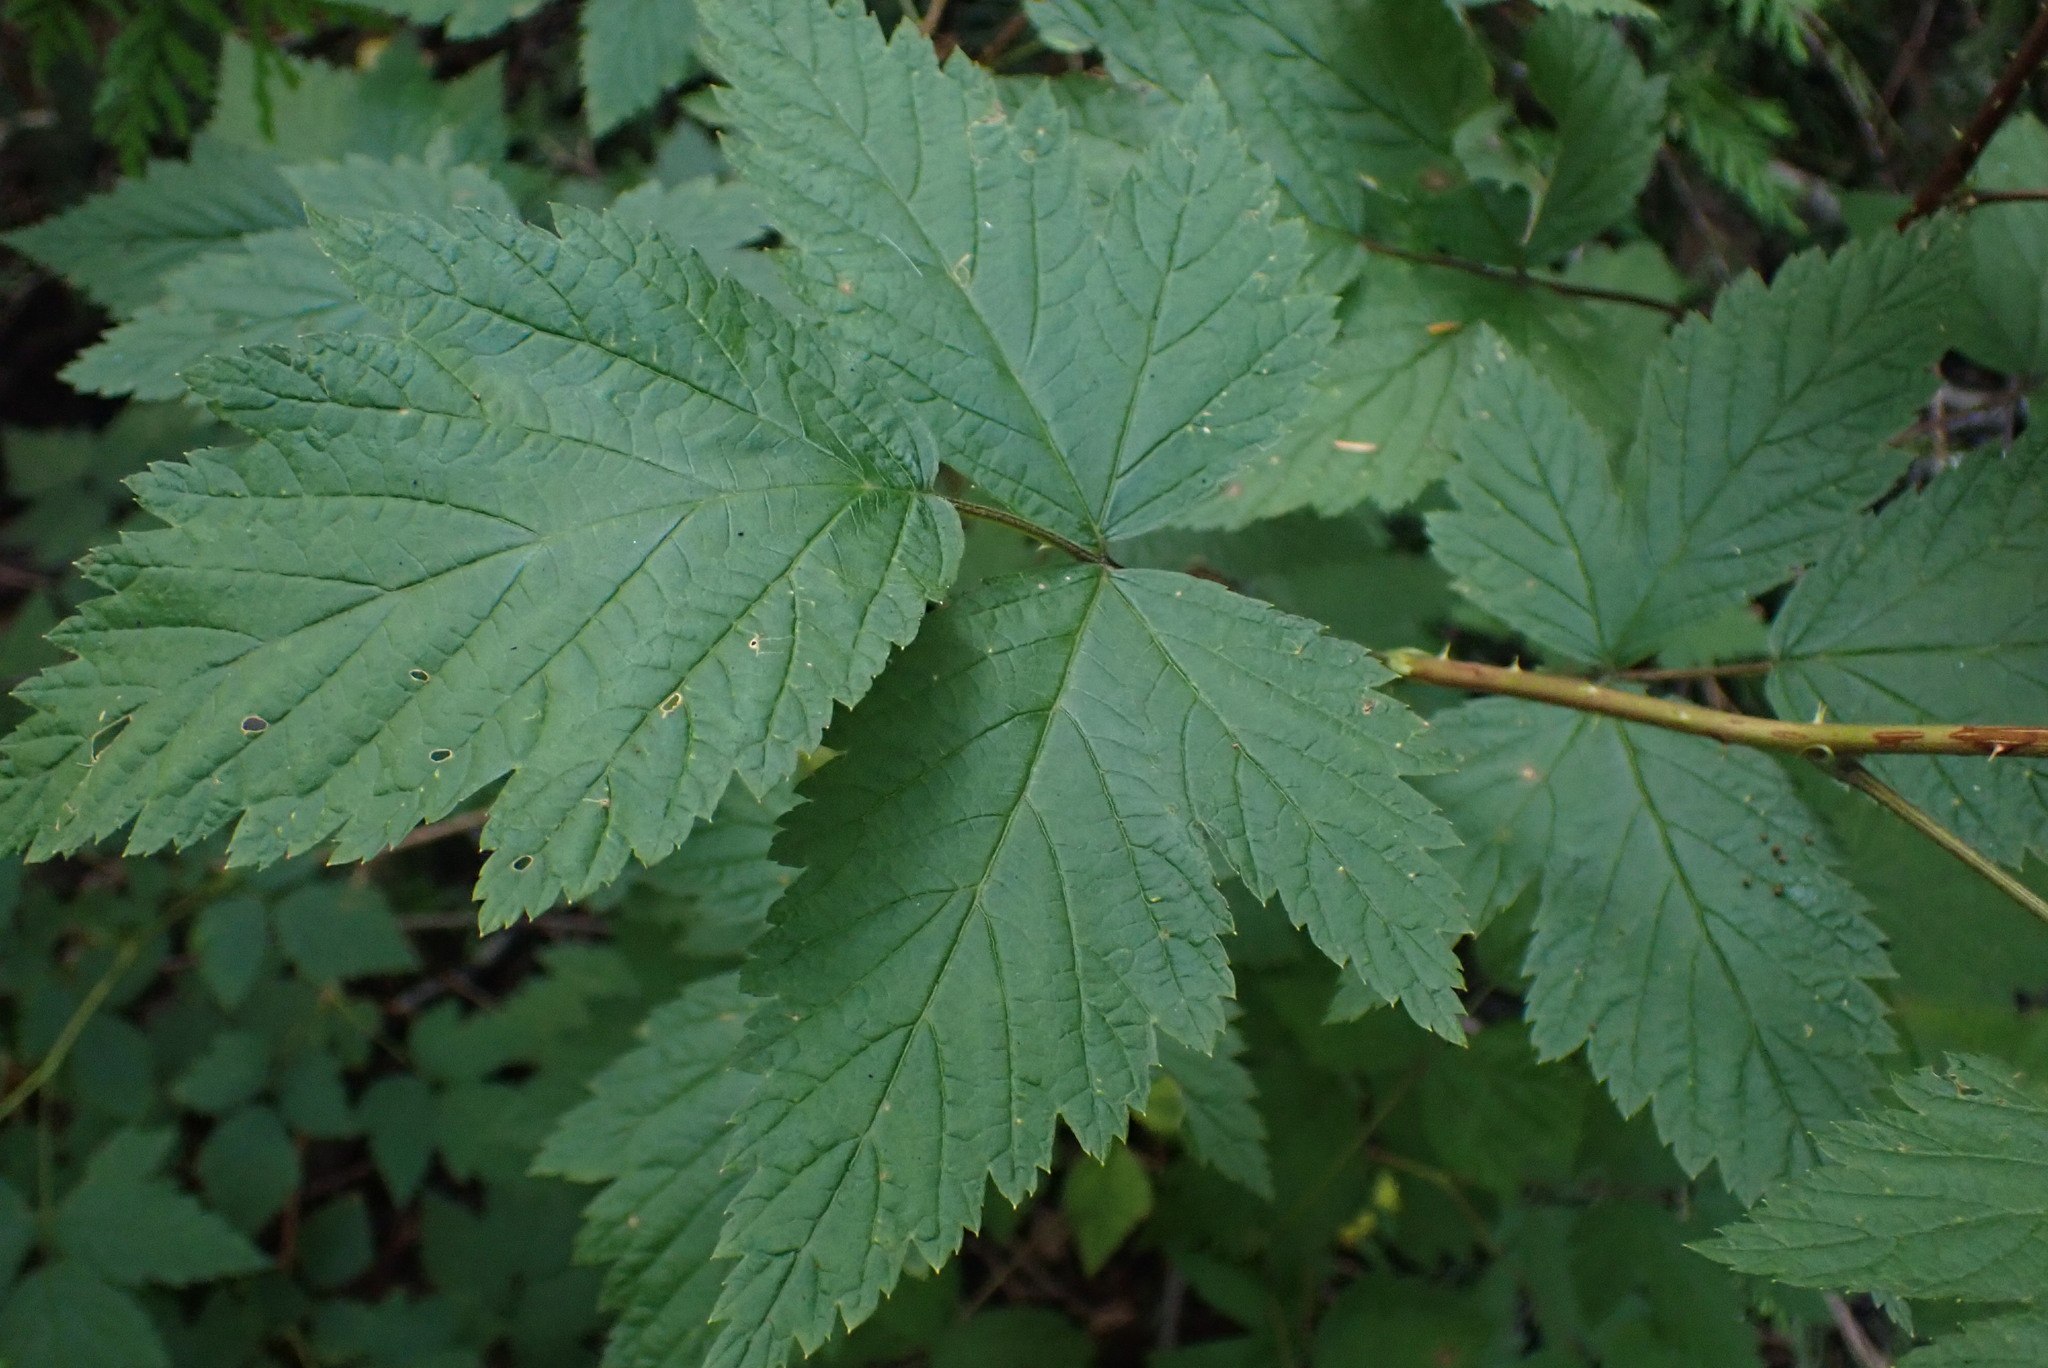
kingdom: Plantae
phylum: Tracheophyta
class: Magnoliopsida
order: Rosales
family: Rosaceae
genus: Rubus
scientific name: Rubus spectabilis
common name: Salmonberry
